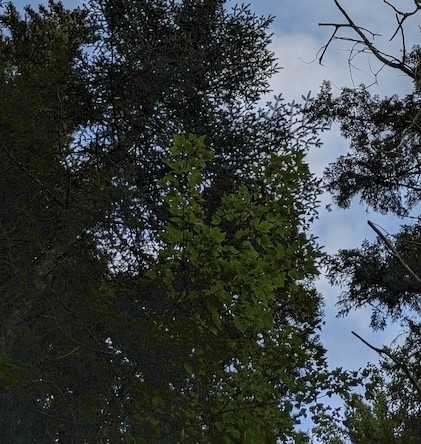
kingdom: Plantae
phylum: Tracheophyta
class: Magnoliopsida
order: Sapindales
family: Sapindaceae
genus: Acer
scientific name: Acer rubrum
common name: Red maple
